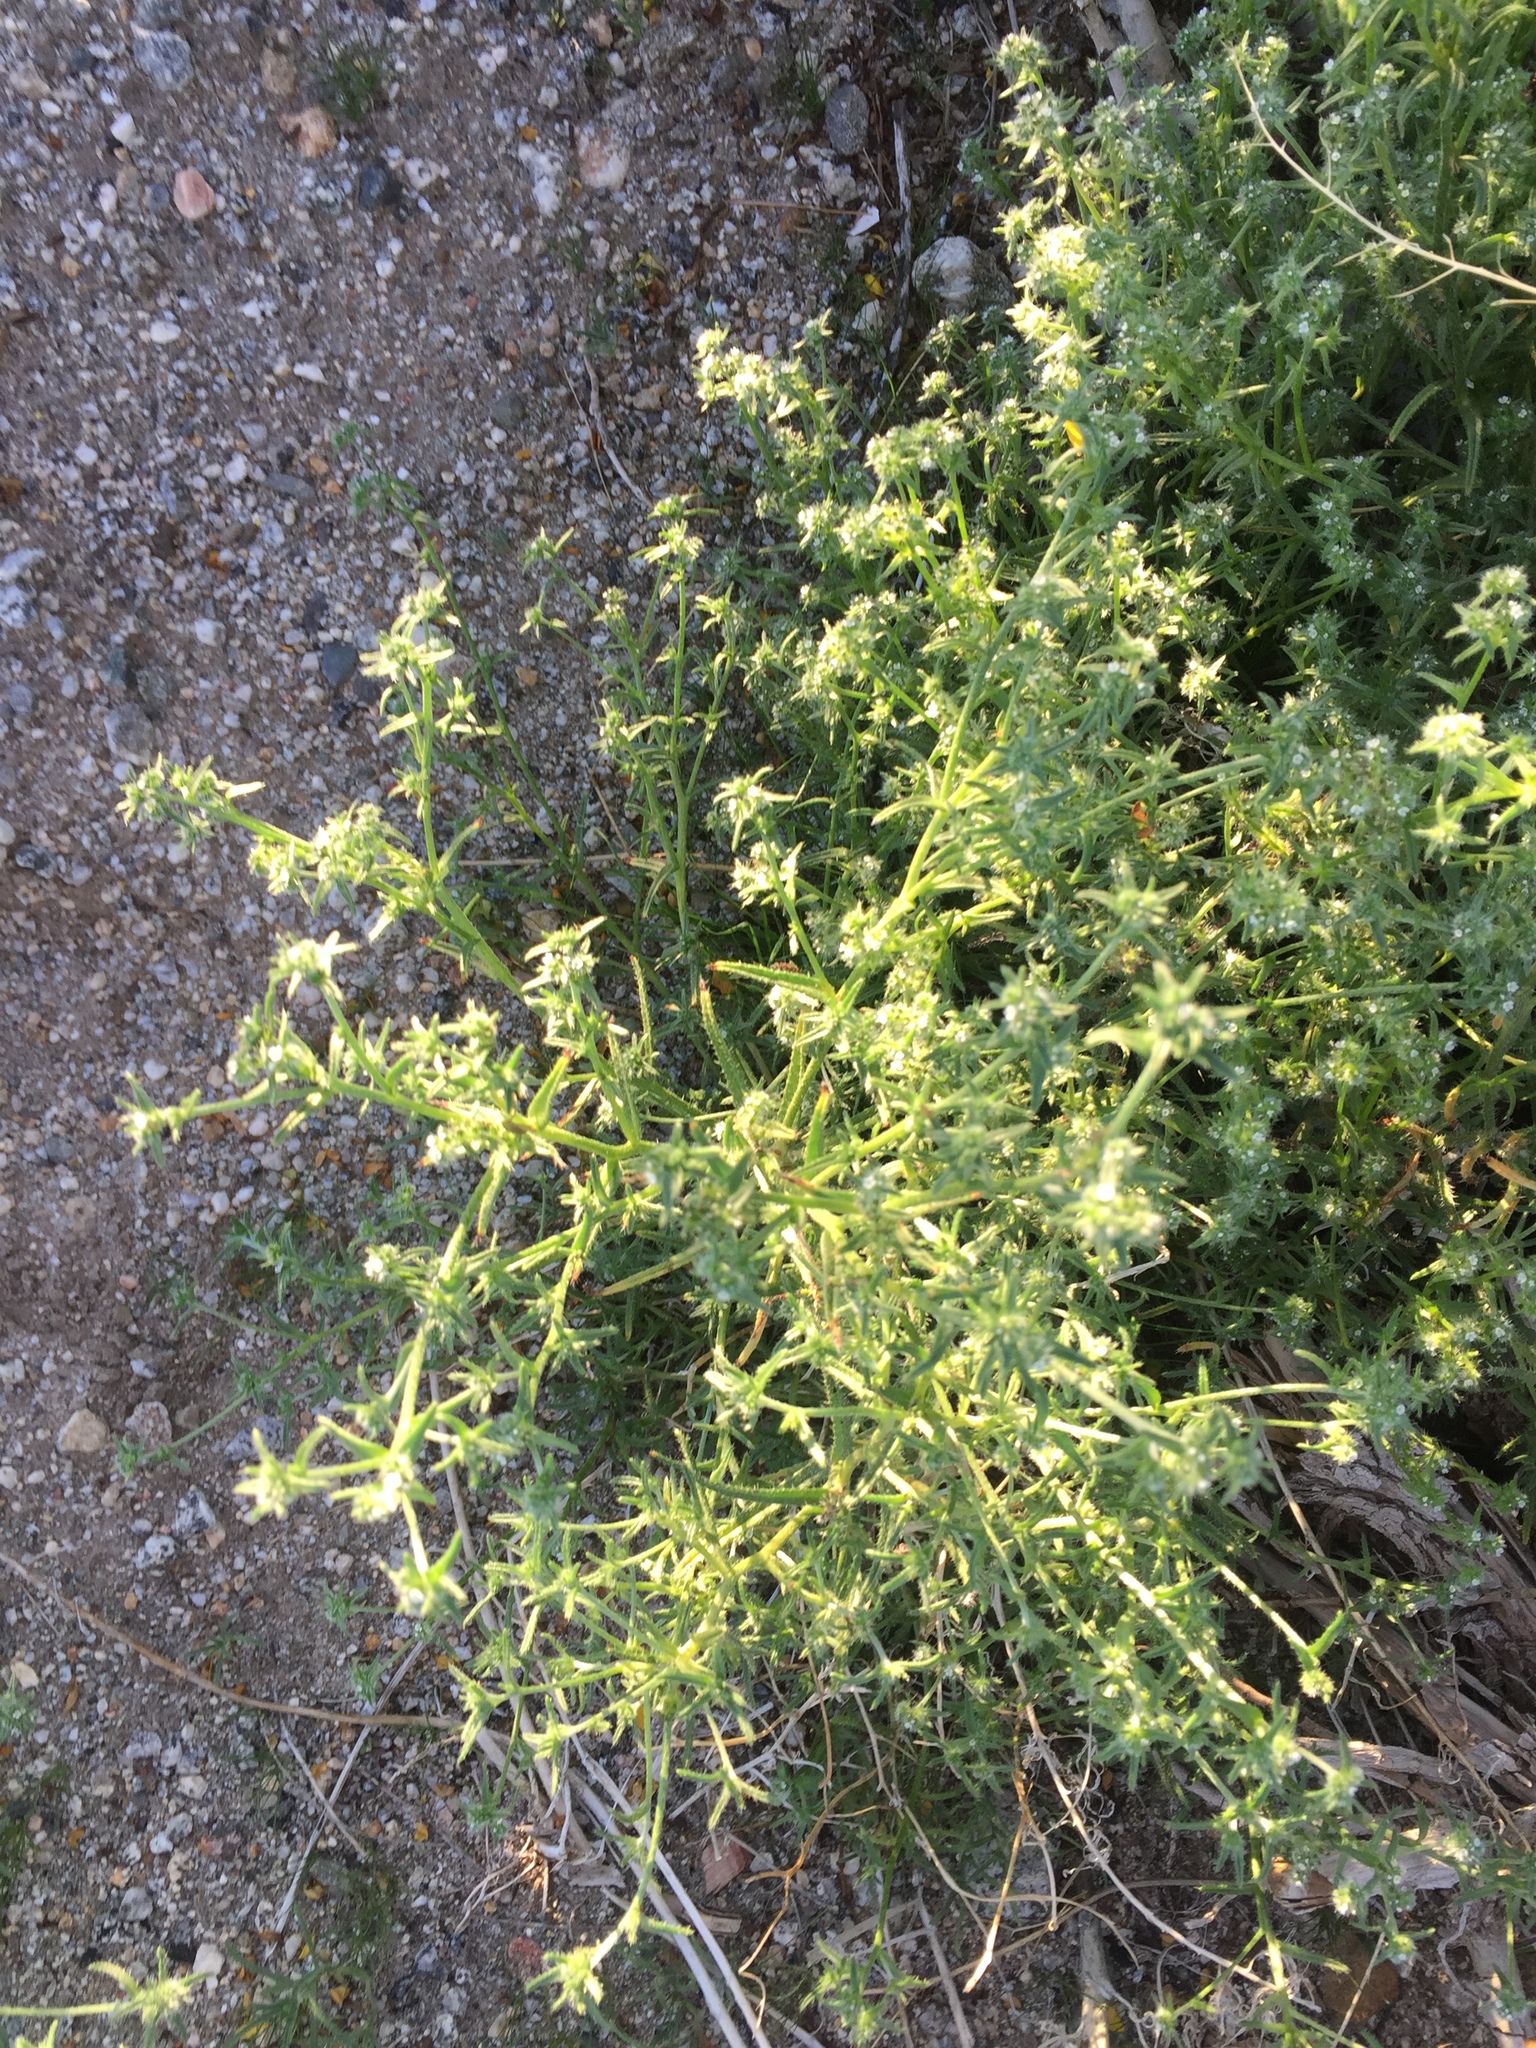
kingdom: Plantae
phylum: Tracheophyta
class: Magnoliopsida
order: Boraginales
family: Boraginaceae
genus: Cryptantha
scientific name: Cryptantha maritima
